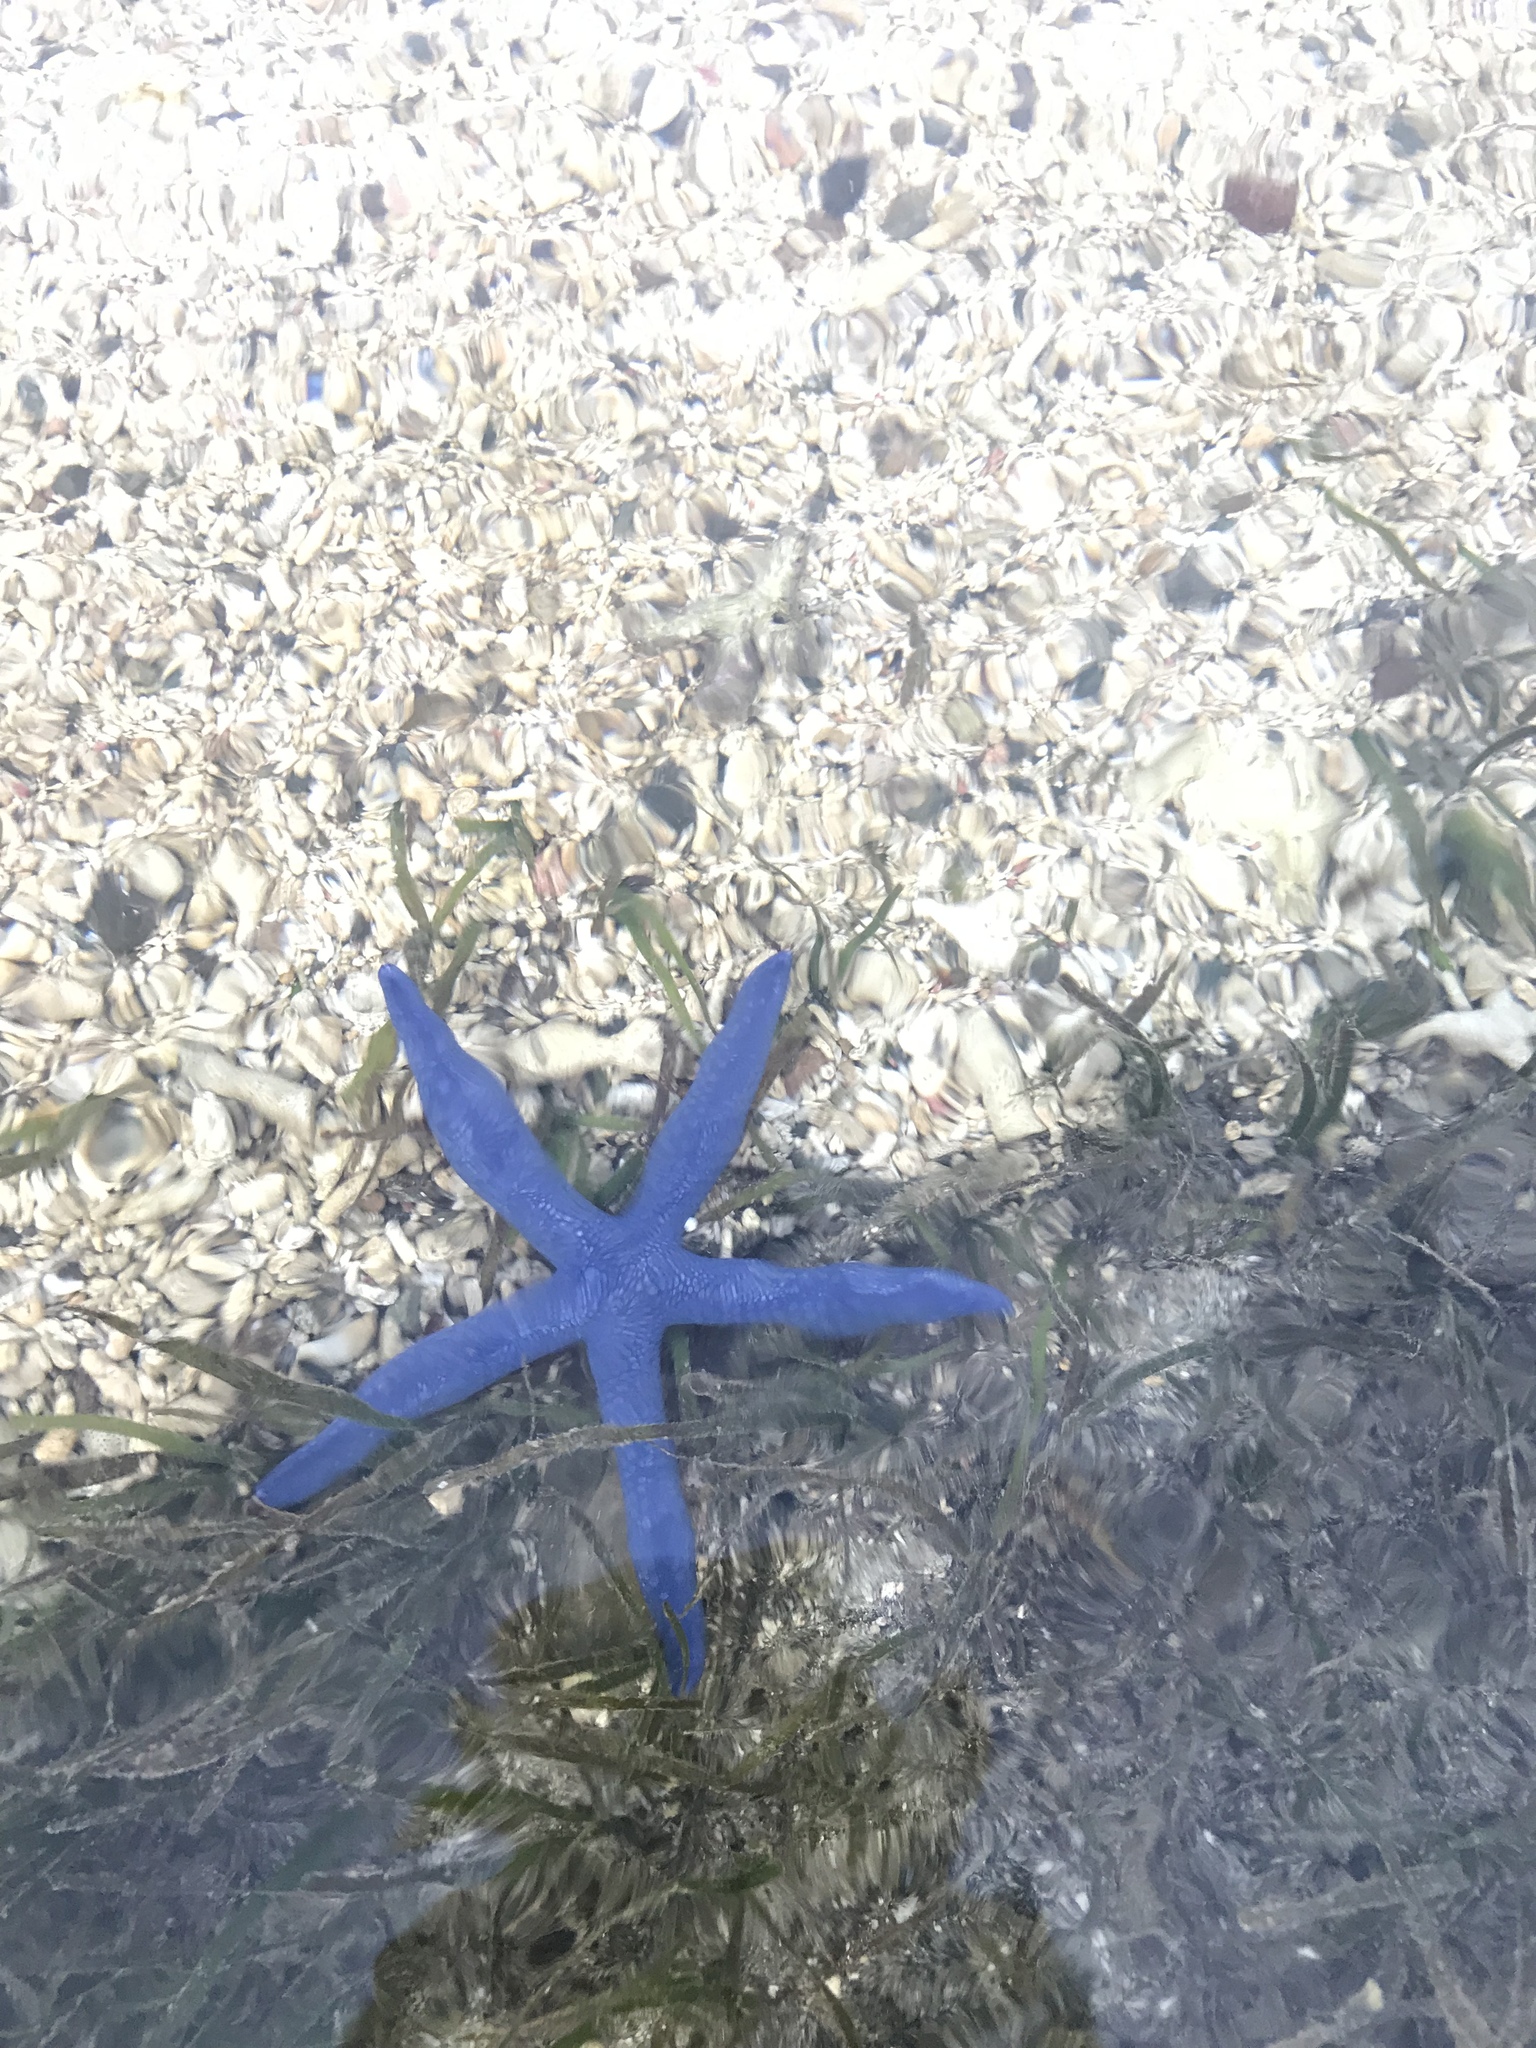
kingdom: Animalia
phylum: Echinodermata
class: Asteroidea
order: Valvatida
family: Ophidiasteridae
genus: Linckia
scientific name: Linckia laevigata
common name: Azure sea star
